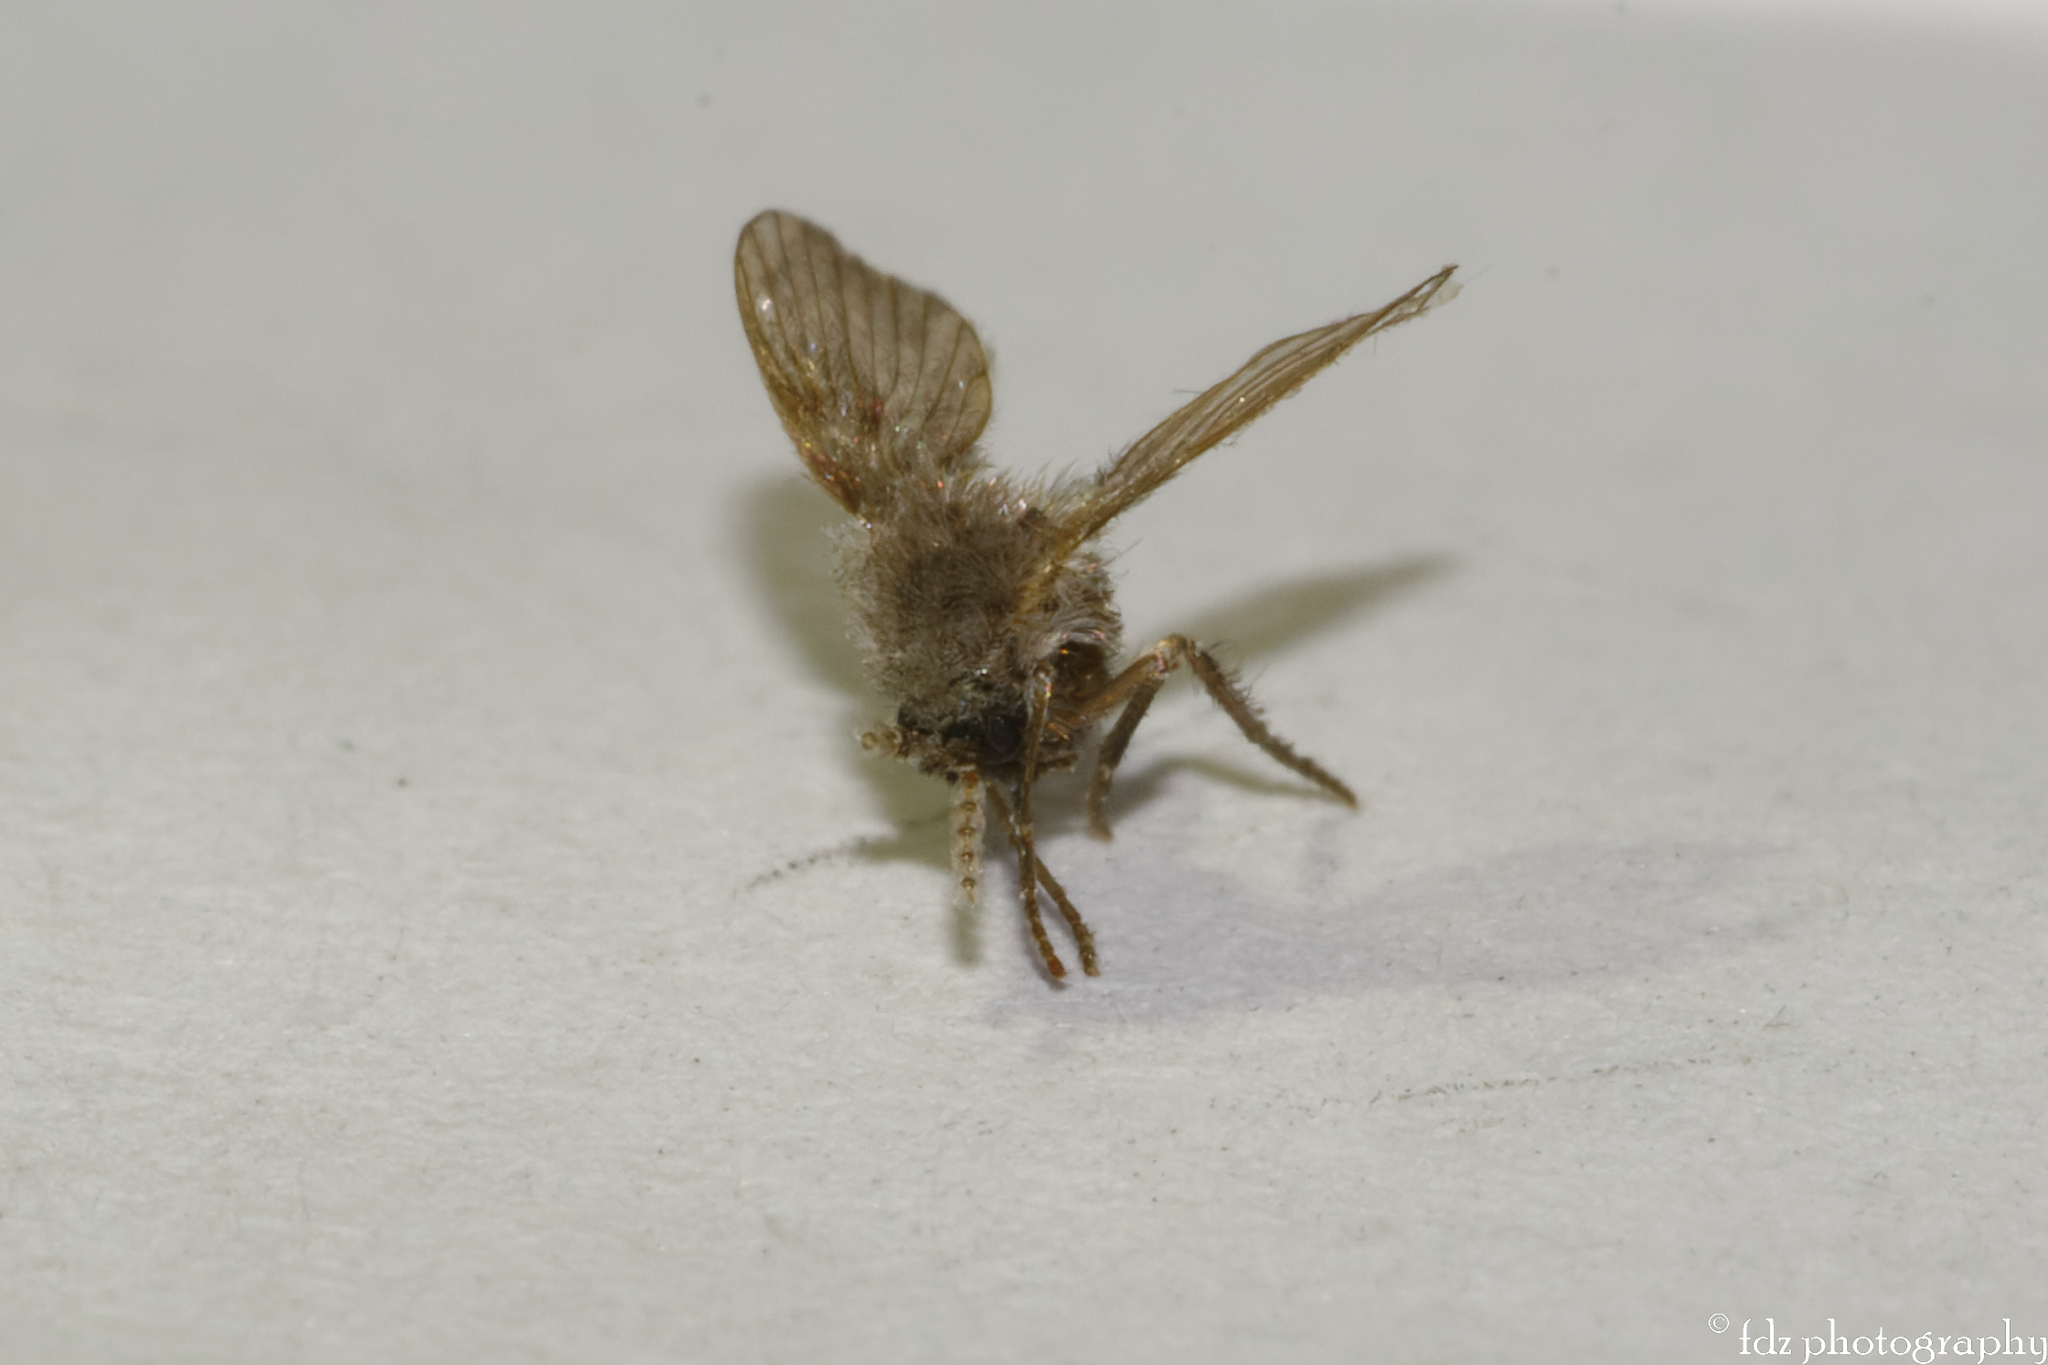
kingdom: Animalia
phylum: Arthropoda
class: Insecta
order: Diptera
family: Psychodidae
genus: Clogmia
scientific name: Clogmia albipunctatus
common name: White-spotted moth fly
